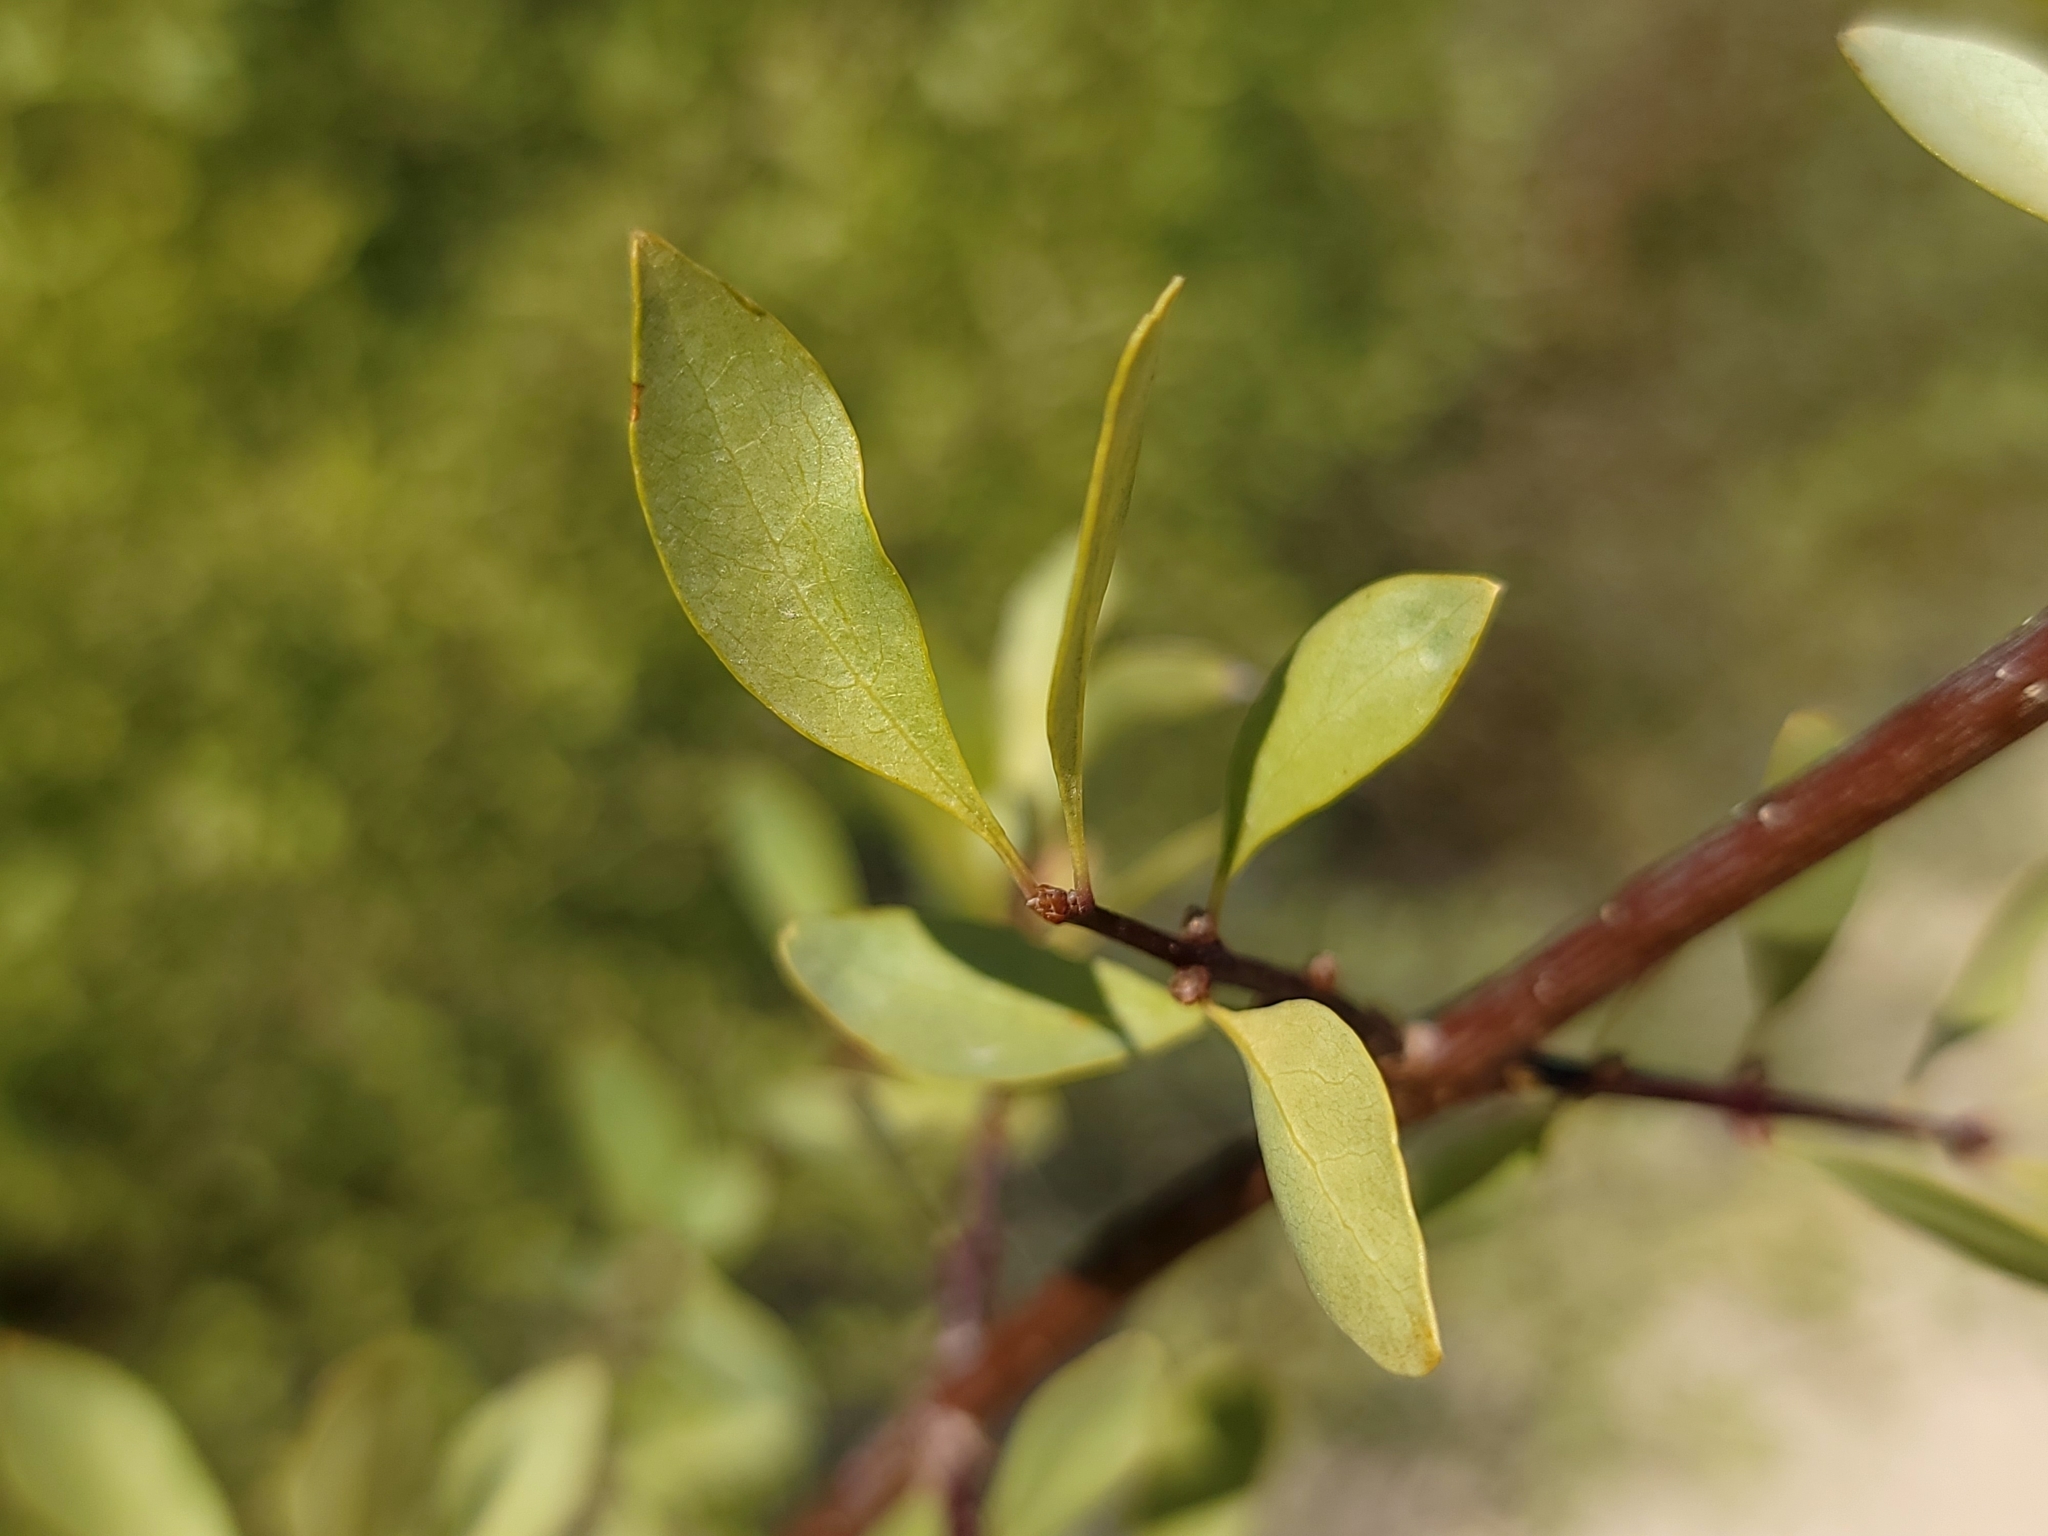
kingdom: Plantae
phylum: Tracheophyta
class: Magnoliopsida
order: Lamiales
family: Oleaceae
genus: Forestiera
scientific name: Forestiera pubescens
